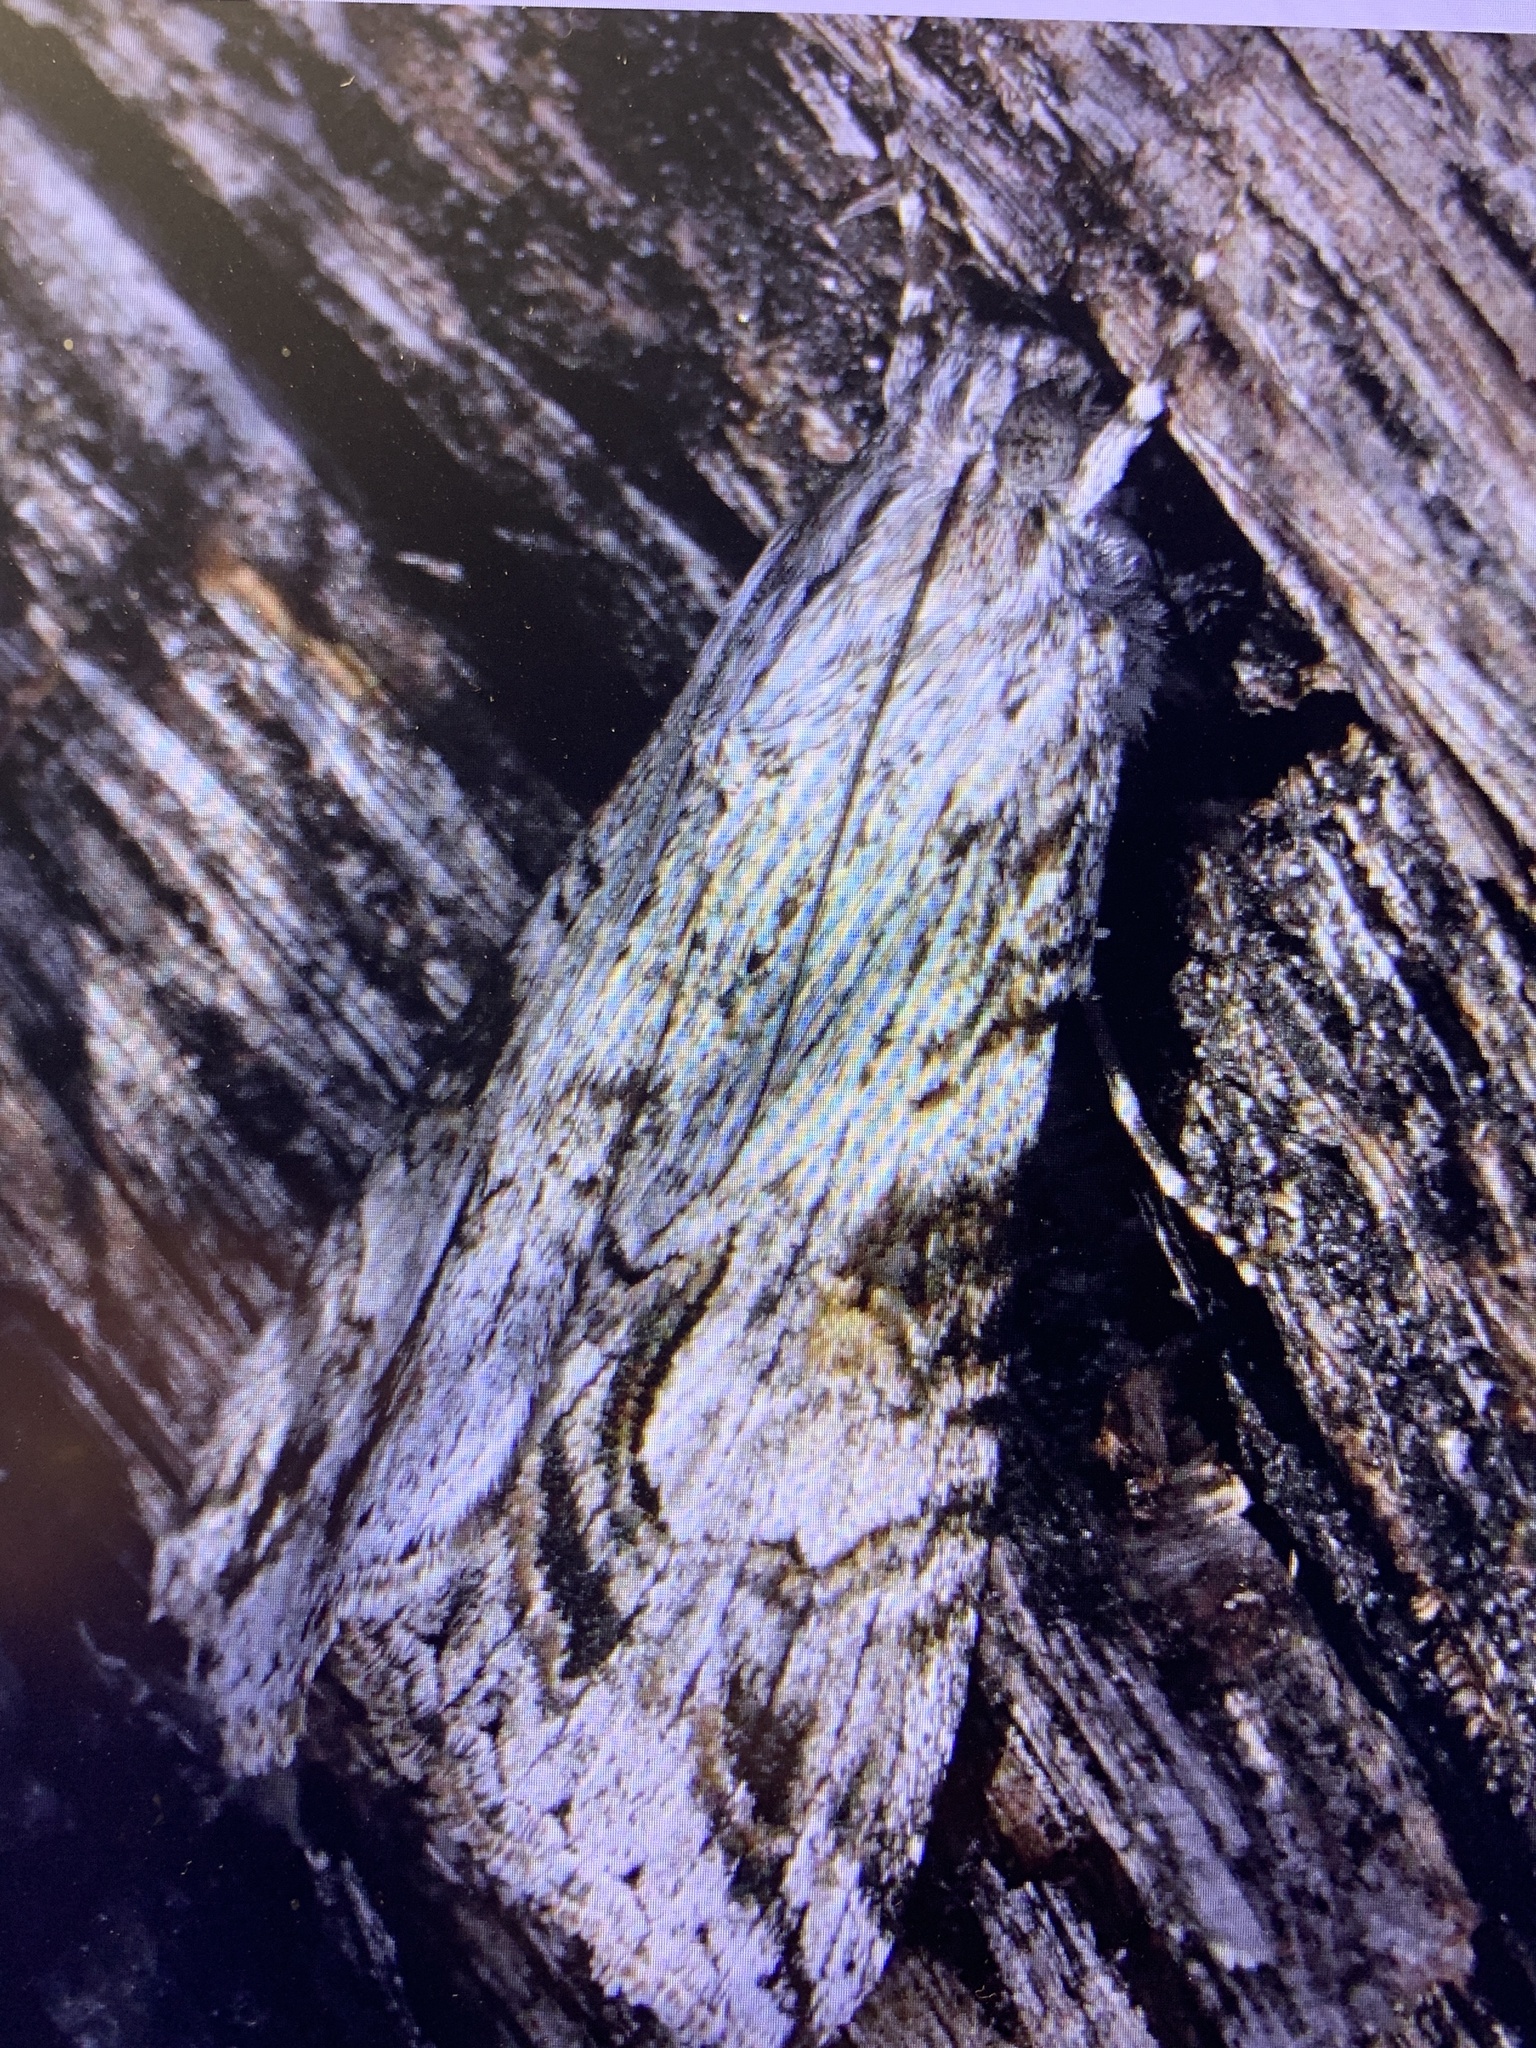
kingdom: Animalia
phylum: Arthropoda
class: Insecta
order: Lepidoptera
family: Erebidae
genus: Melipotis
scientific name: Melipotis jucunda
